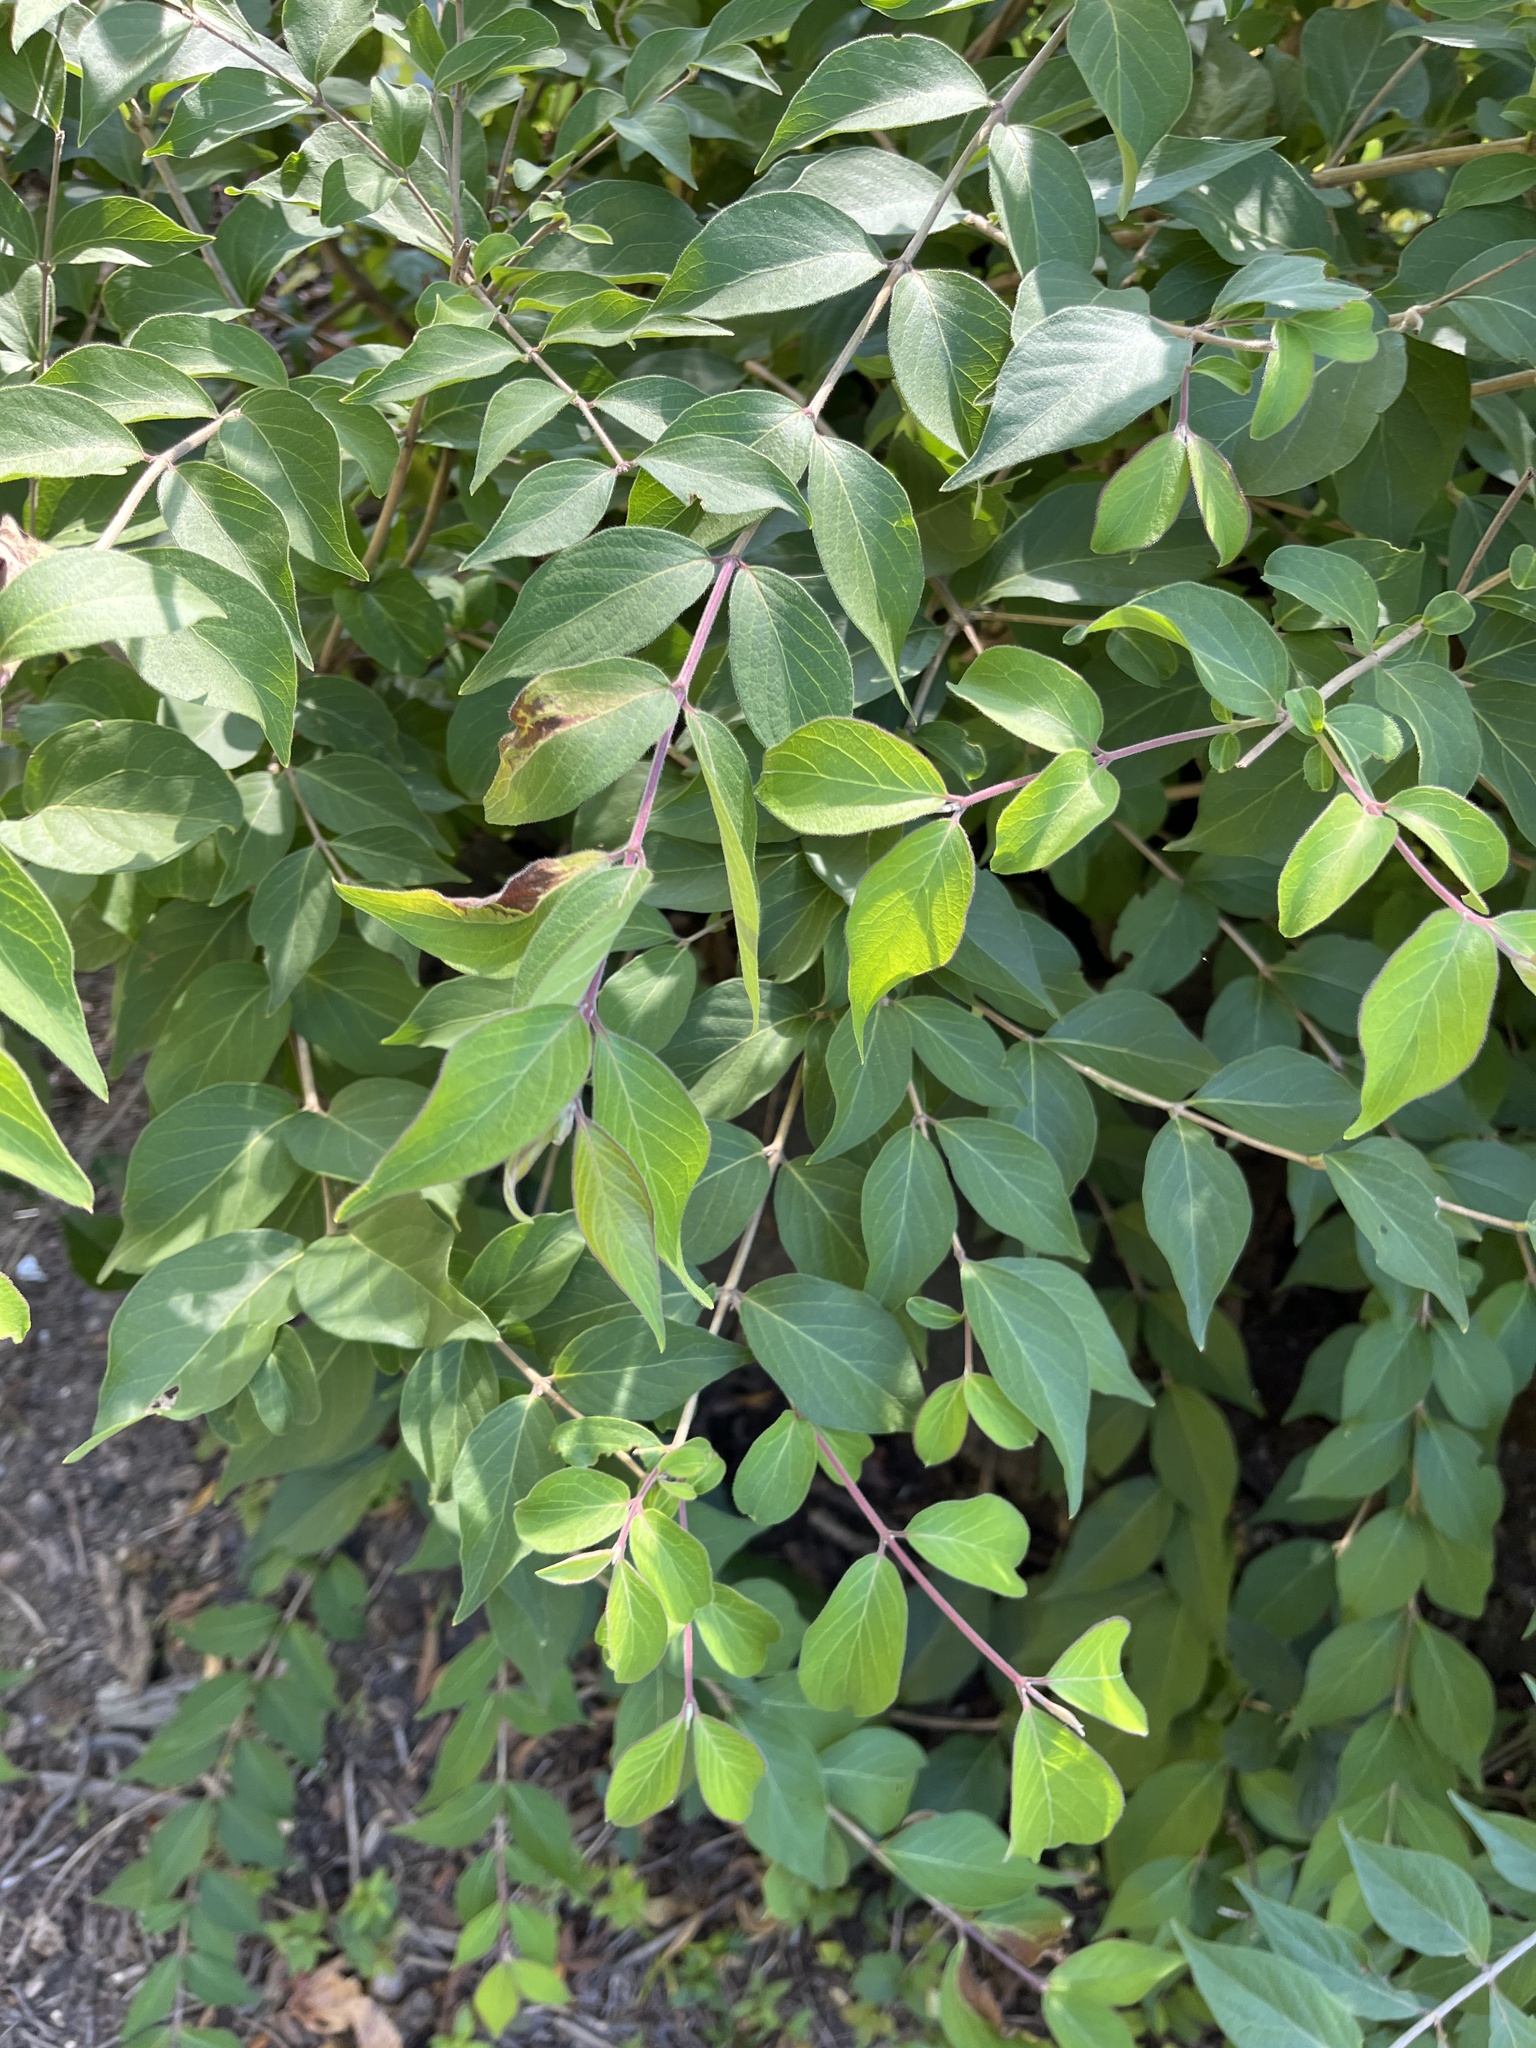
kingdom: Plantae
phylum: Tracheophyta
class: Magnoliopsida
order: Dipsacales
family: Caprifoliaceae
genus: Lonicera
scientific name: Lonicera maackii
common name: Amur honeysuckle
